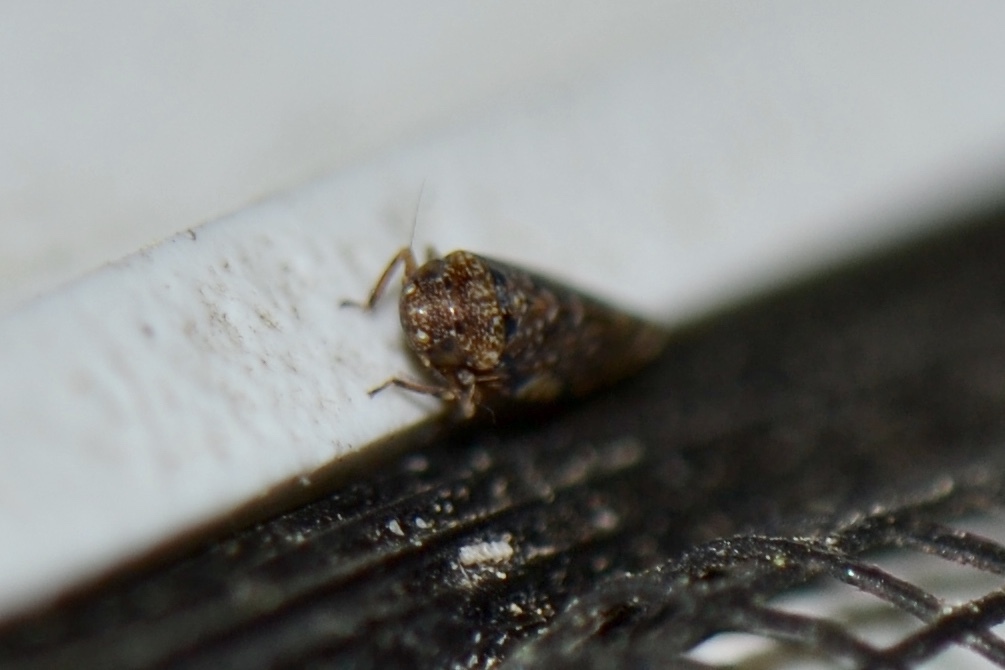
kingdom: Animalia
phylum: Arthropoda
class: Insecta
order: Hemiptera
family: Cicadellidae
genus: Xestocephalus
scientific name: Xestocephalus tessellatus
